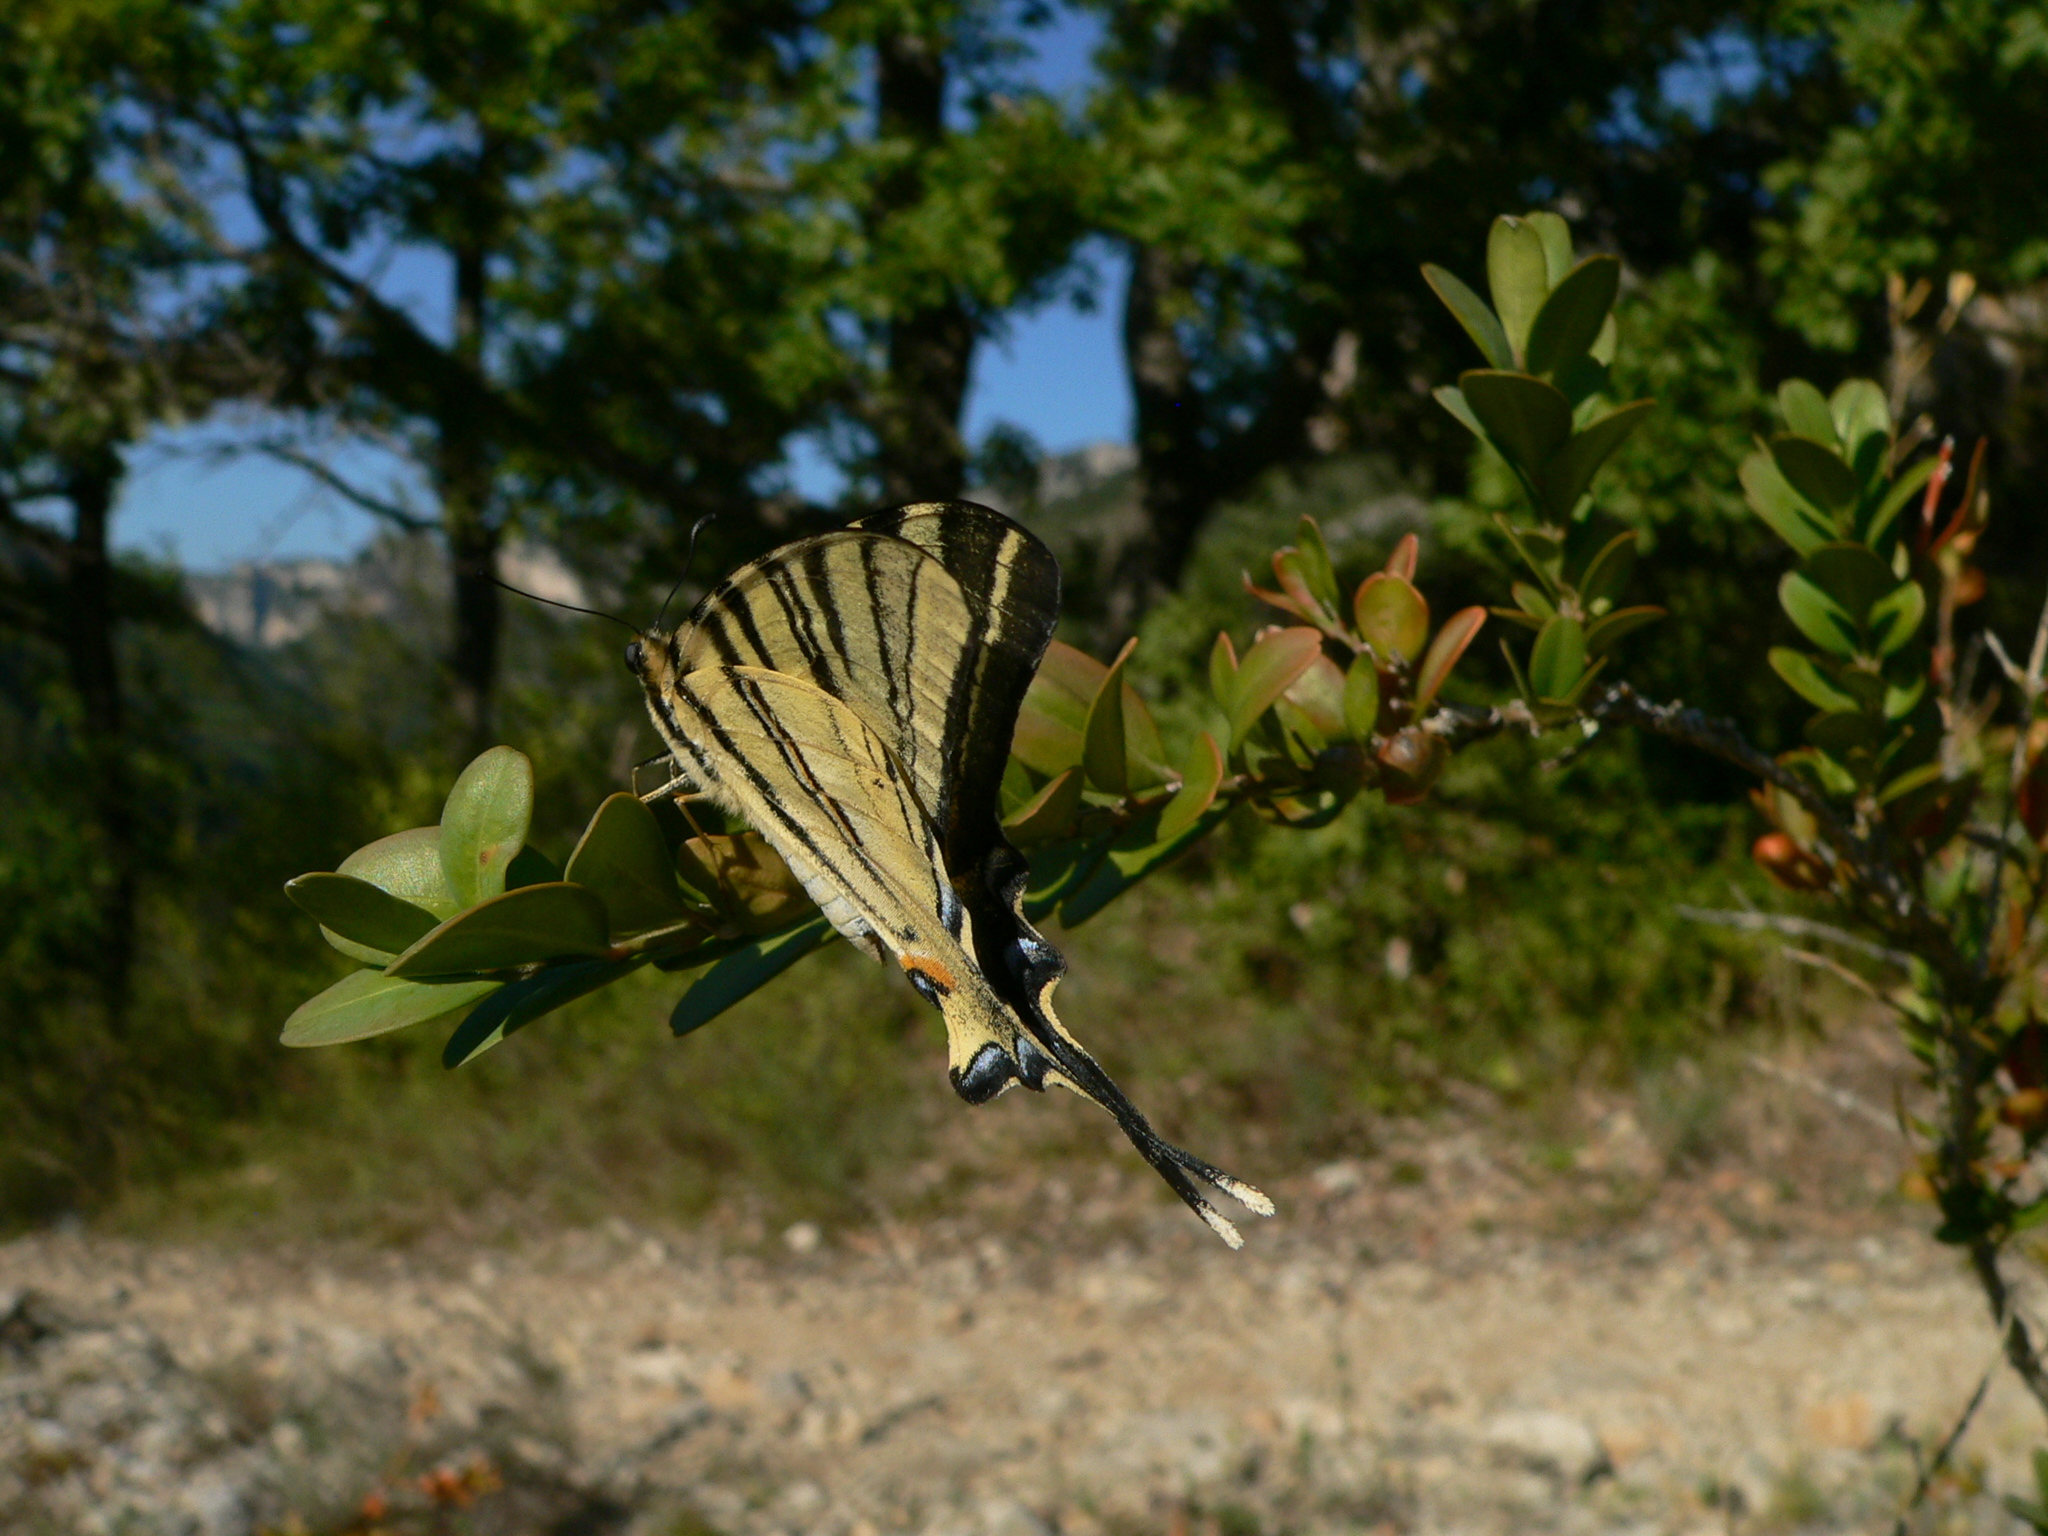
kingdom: Animalia
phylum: Arthropoda
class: Insecta
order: Lepidoptera
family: Papilionidae
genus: Iphiclides
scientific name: Iphiclides podalirius
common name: Scarce swallowtail
